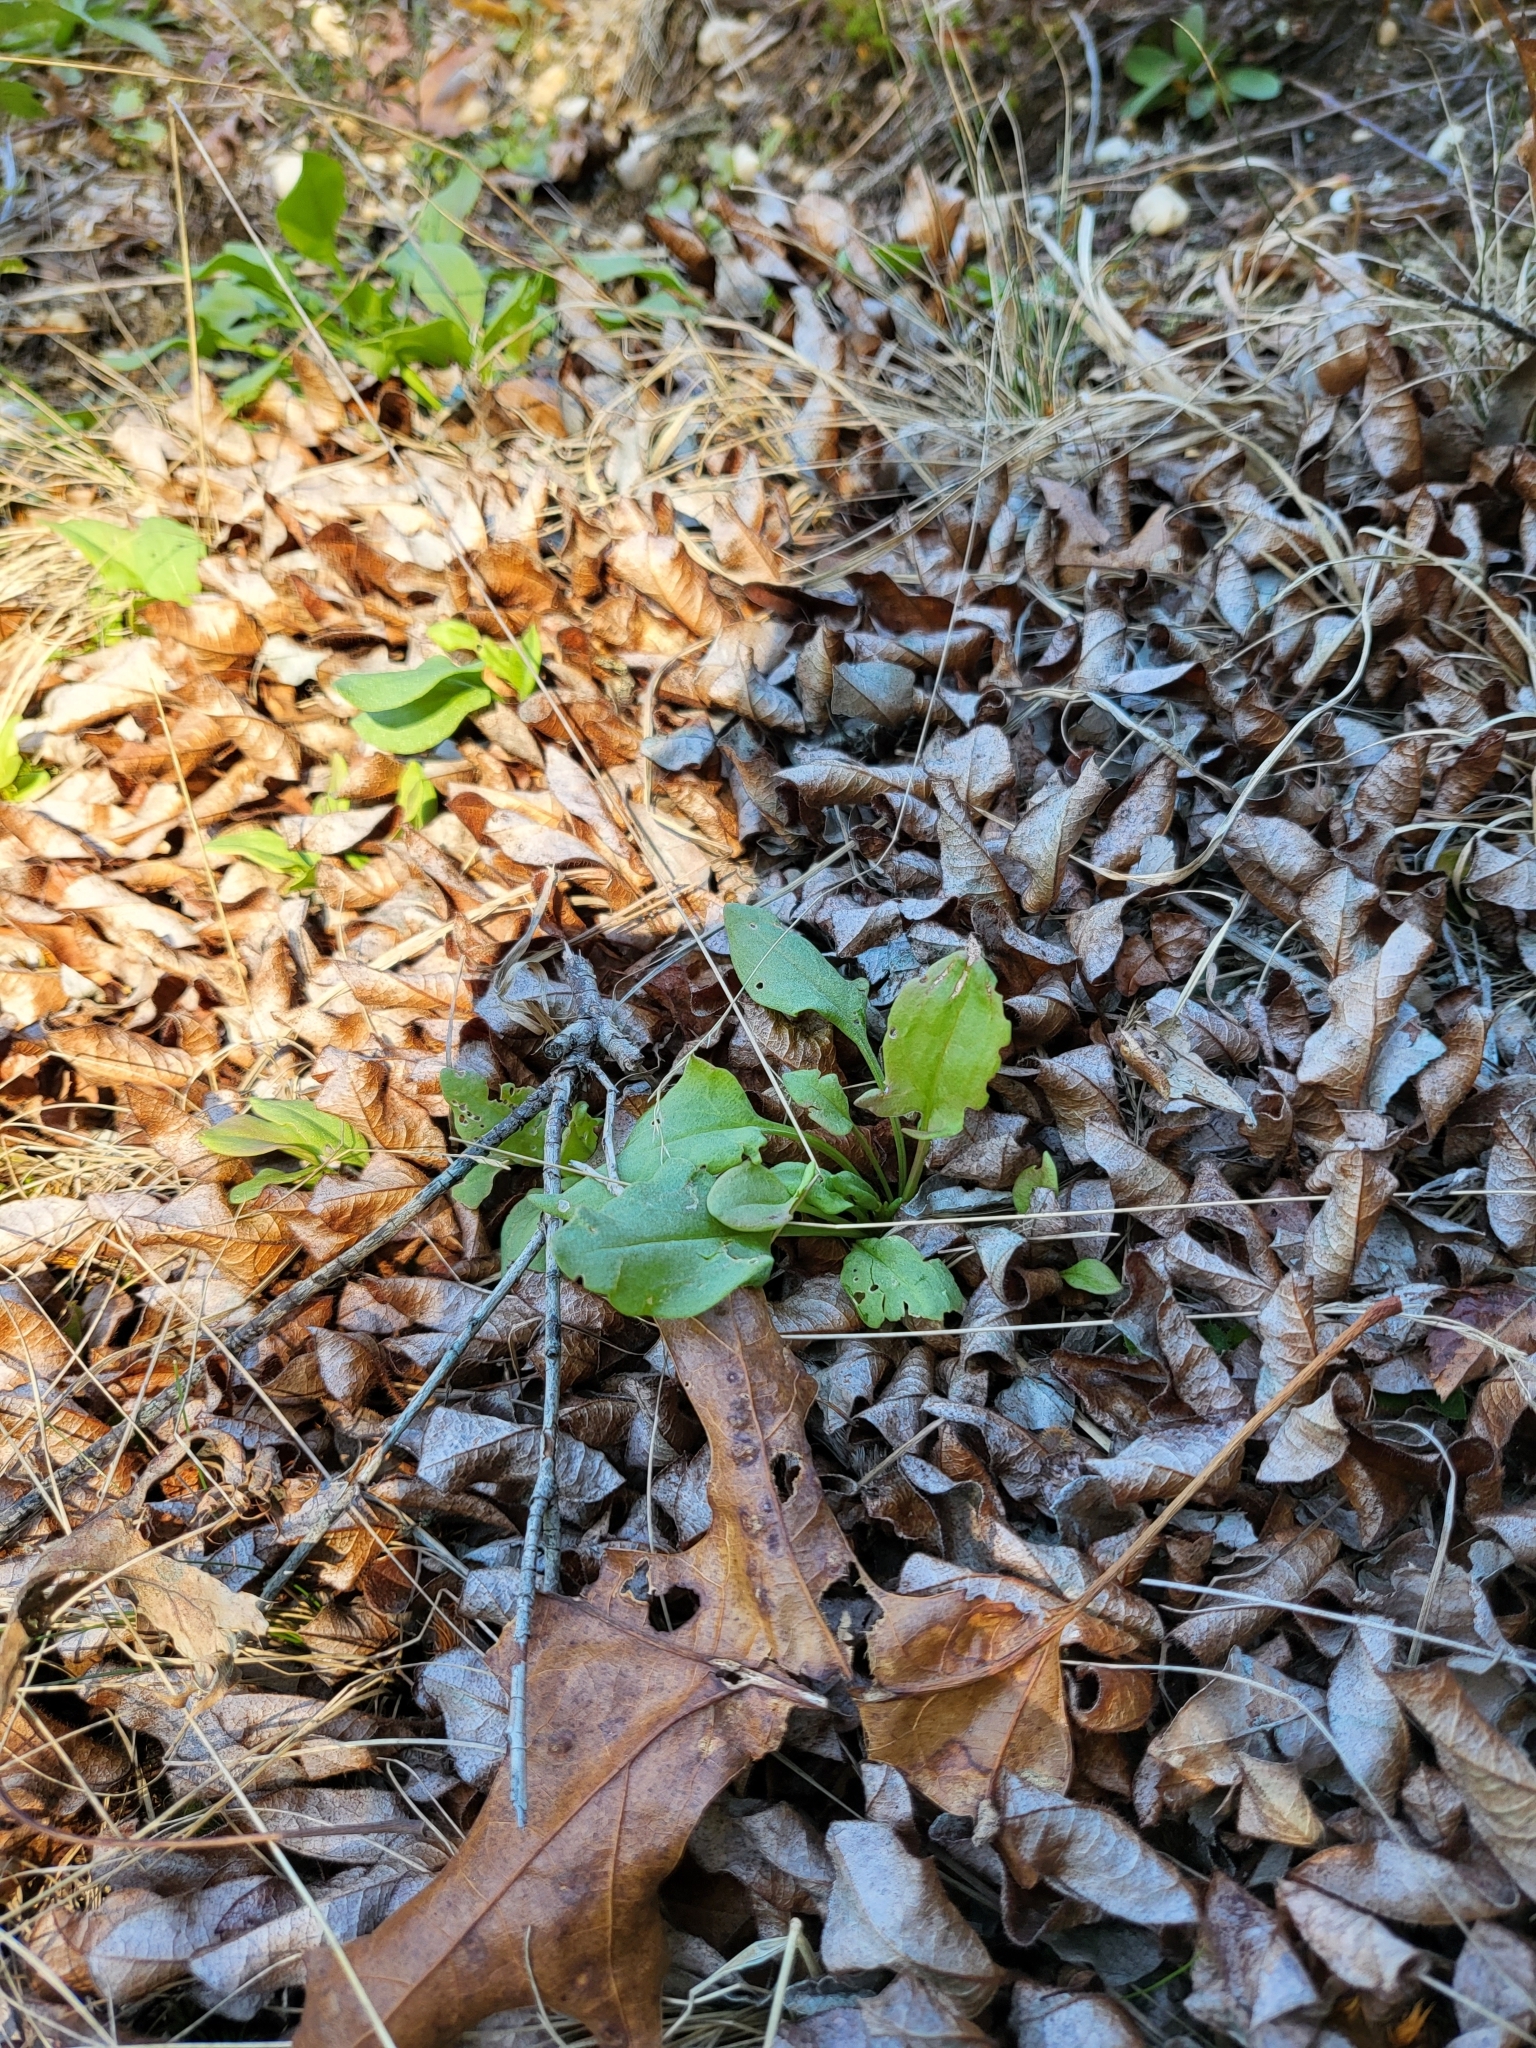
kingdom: Plantae
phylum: Tracheophyta
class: Magnoliopsida
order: Caryophyllales
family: Polygonaceae
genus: Rumex
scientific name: Rumex acetosella
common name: Common sheep sorrel
